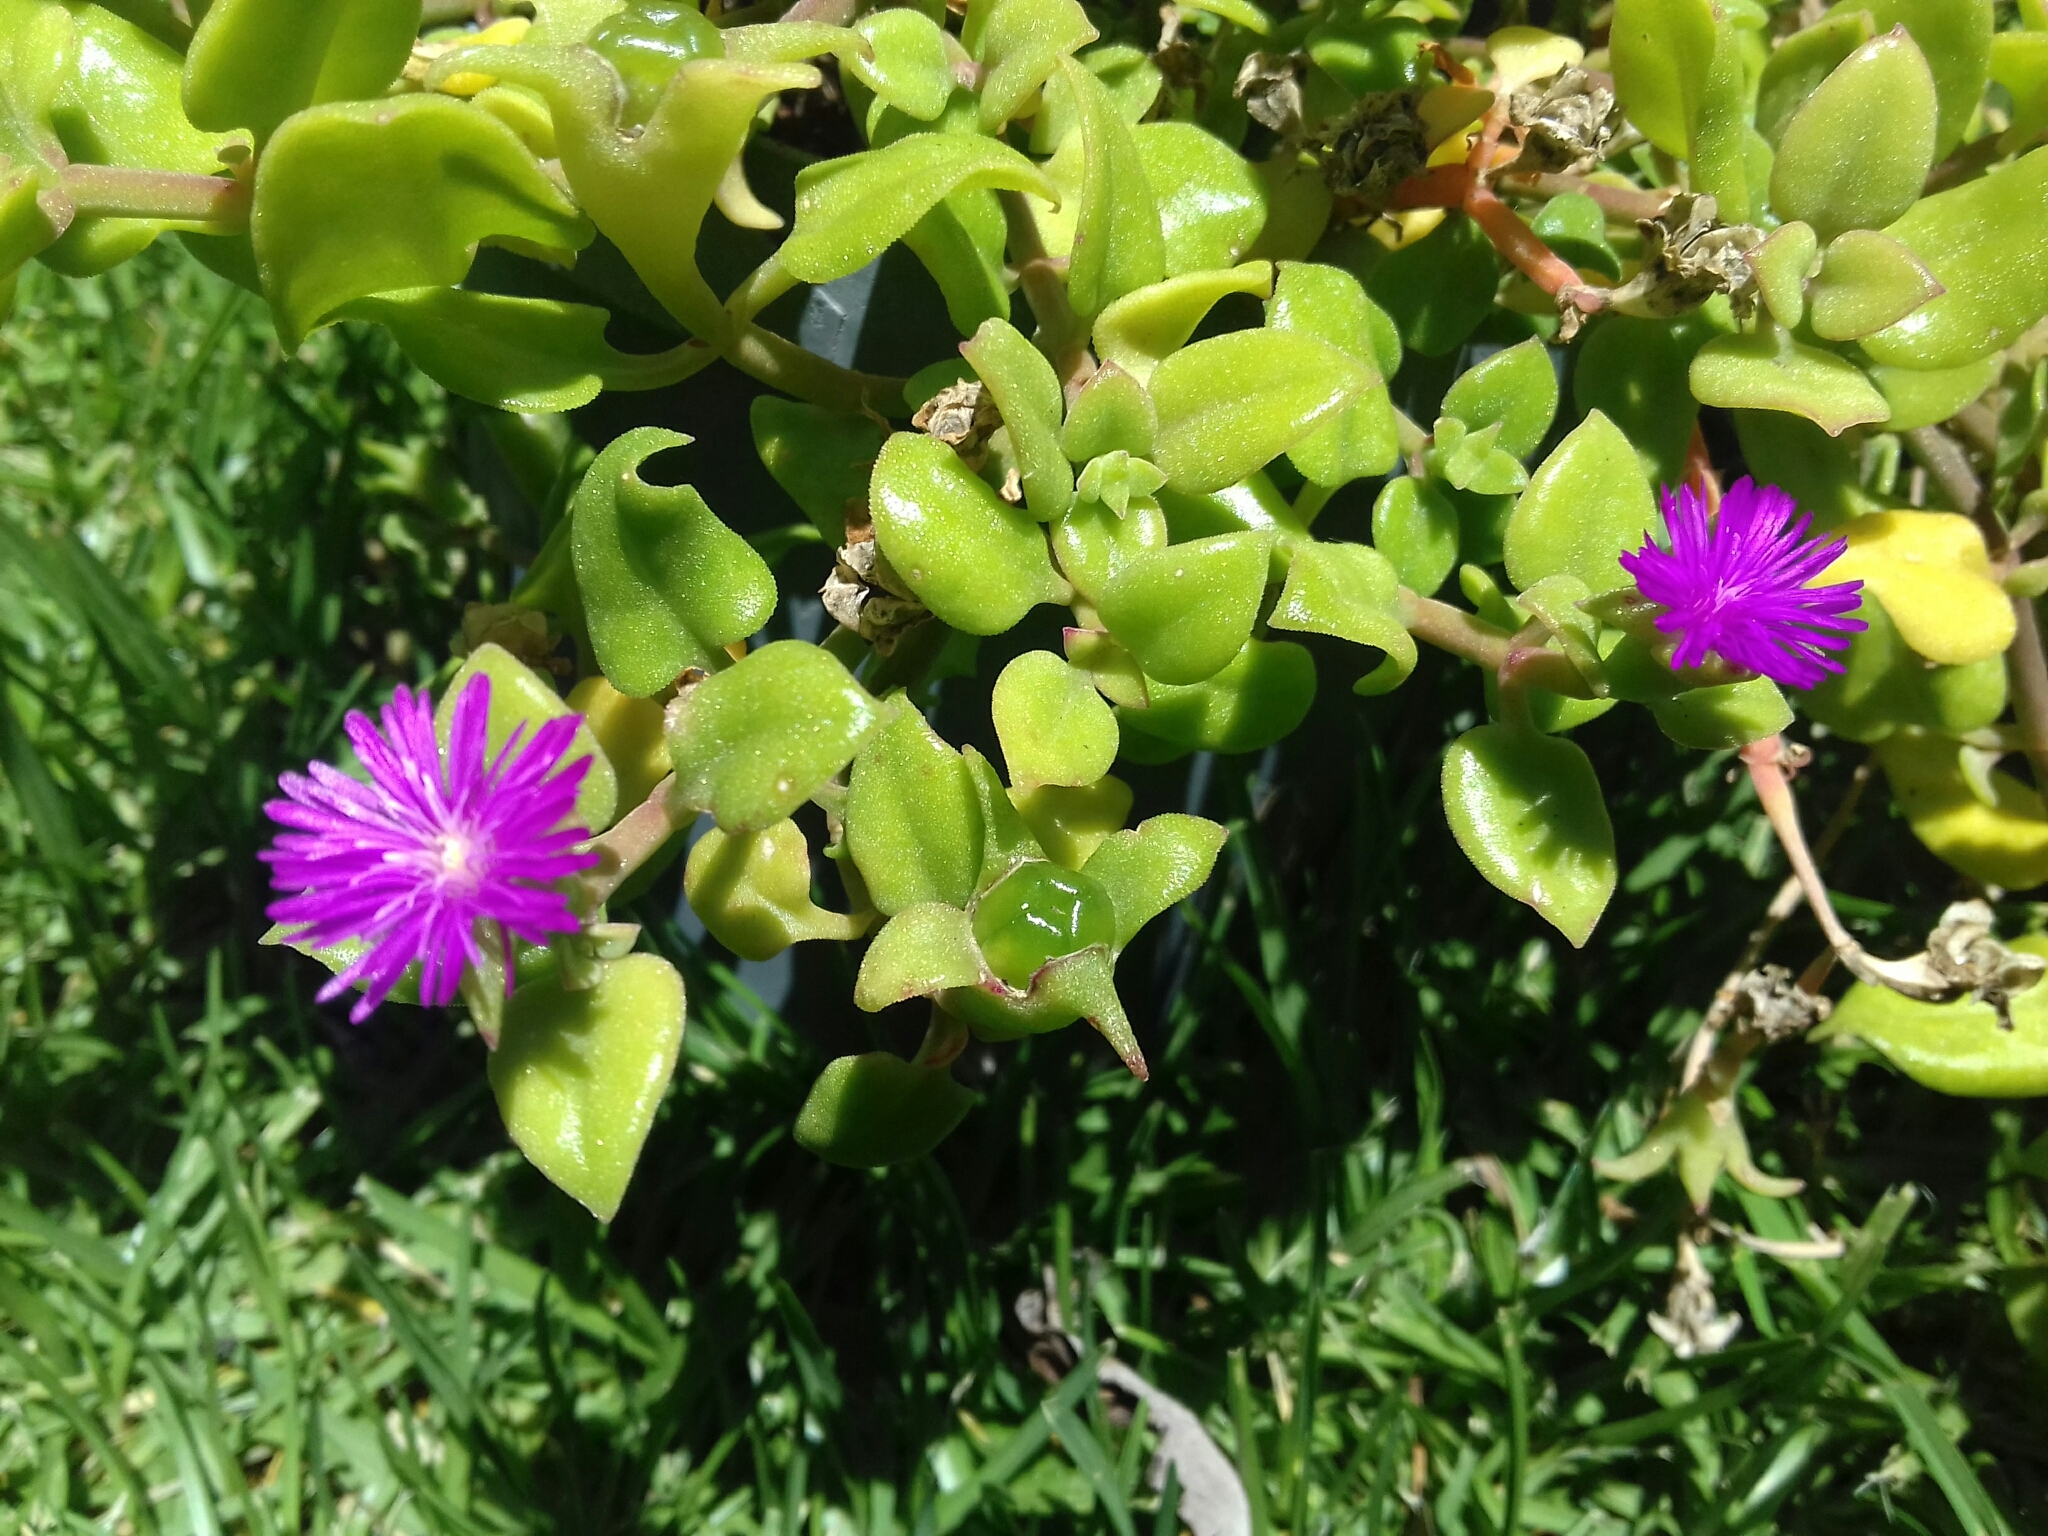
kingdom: Plantae
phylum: Tracheophyta
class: Magnoliopsida
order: Caryophyllales
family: Aizoaceae
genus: Mesembryanthemum
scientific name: Mesembryanthemum cordifolium
